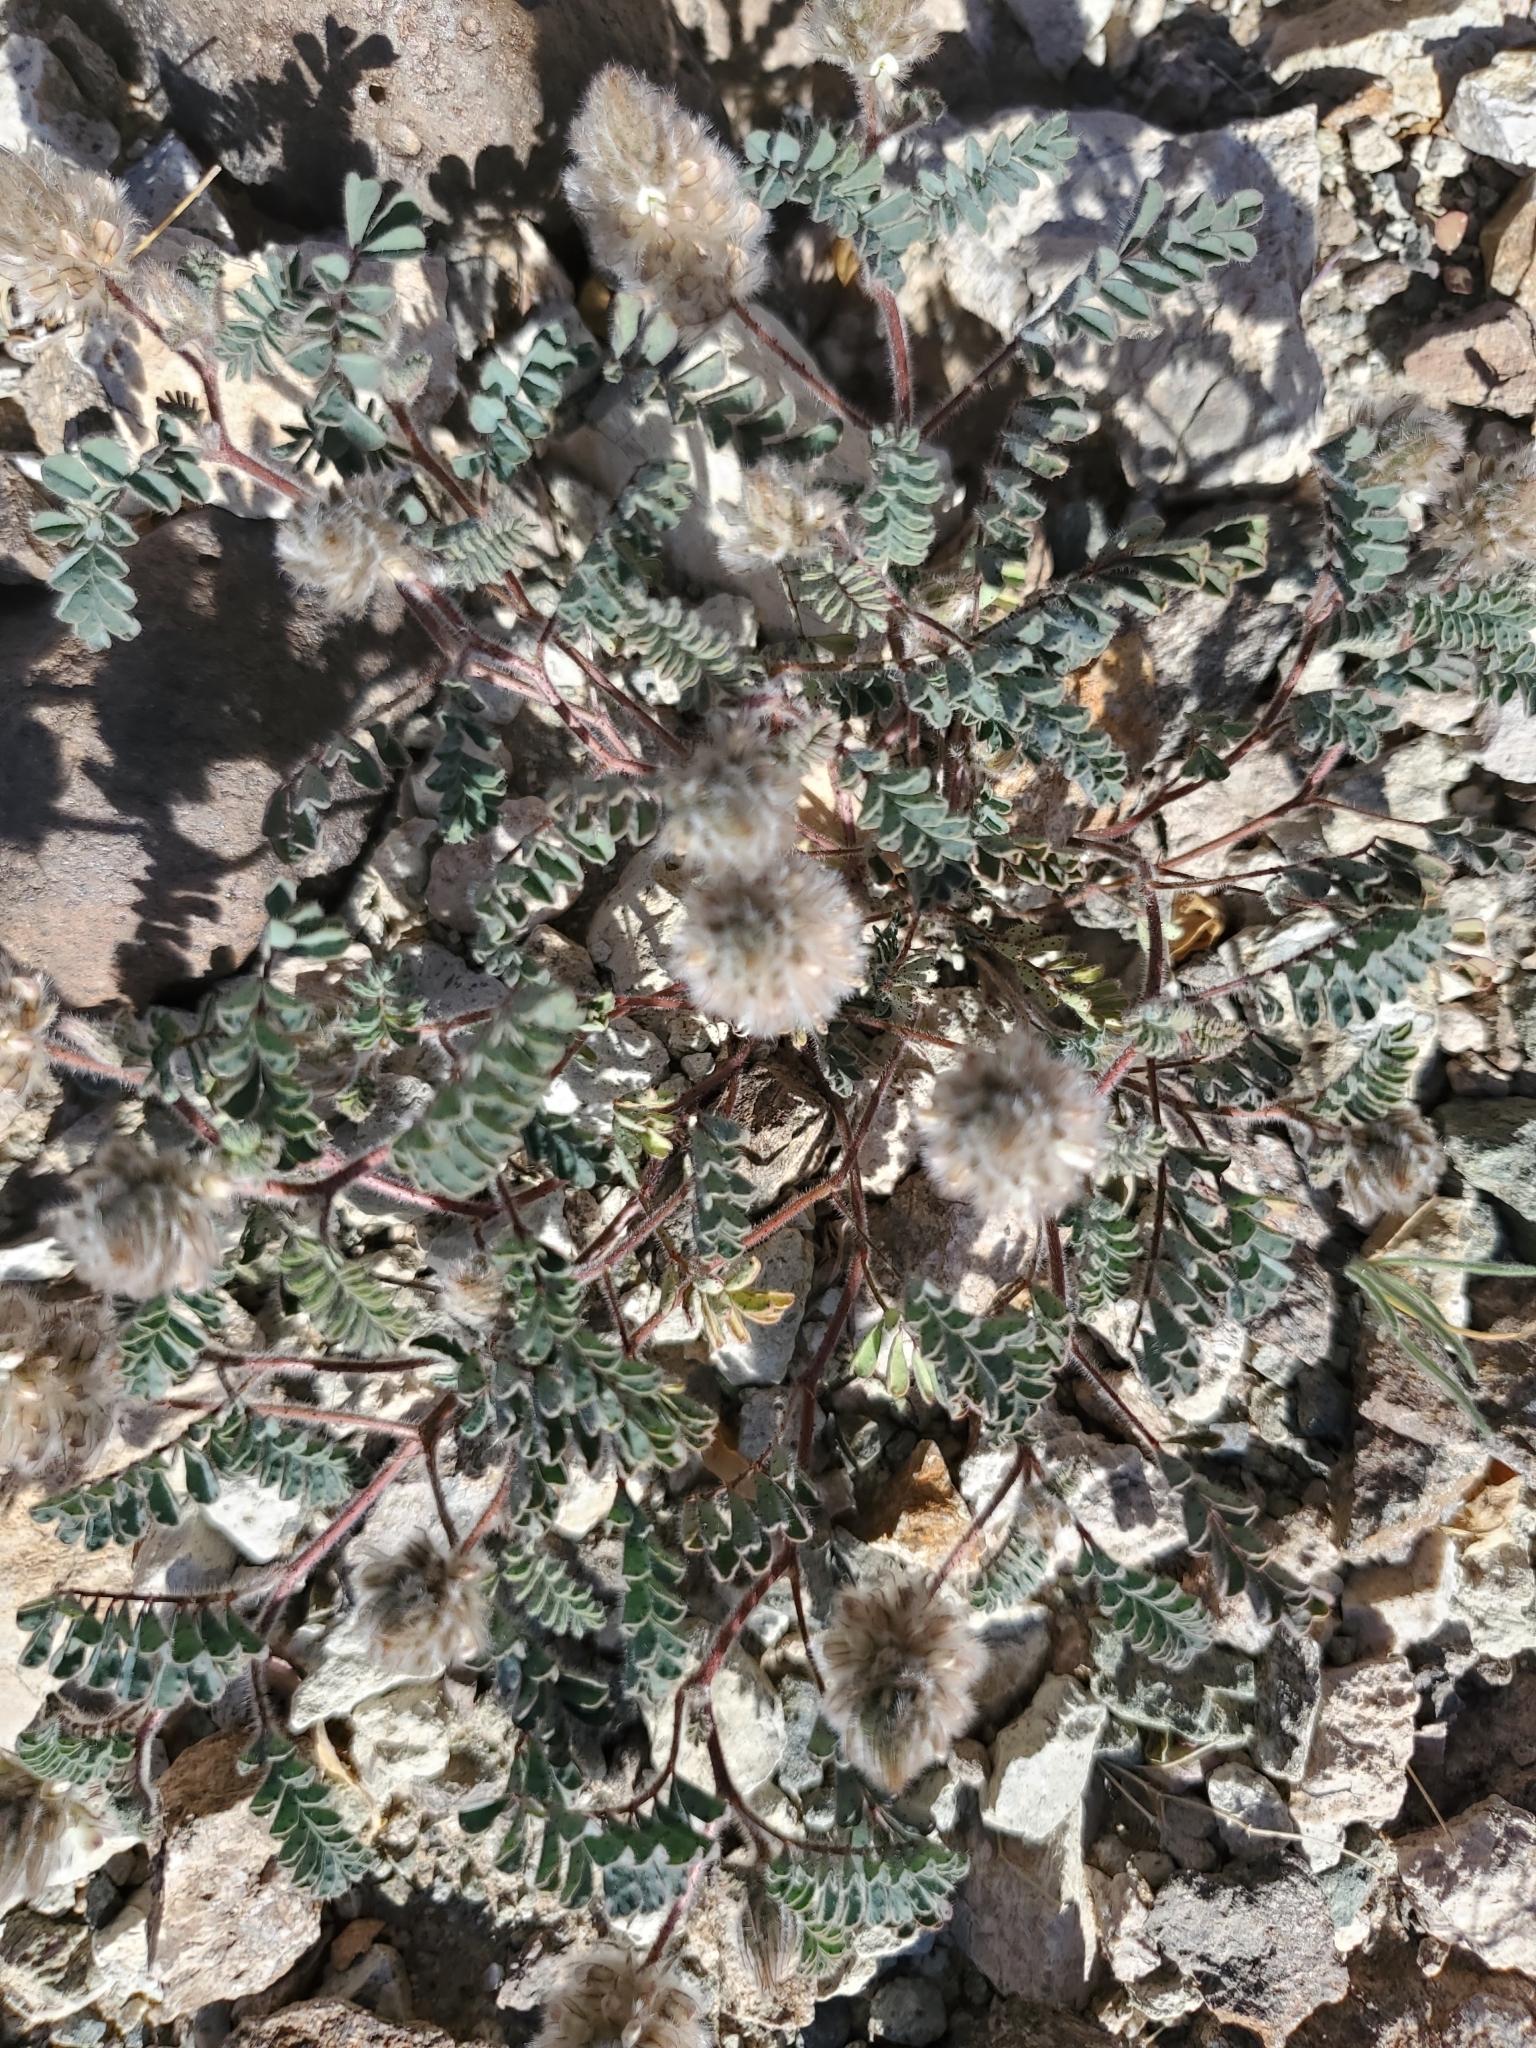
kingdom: Plantae
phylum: Tracheophyta
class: Magnoliopsida
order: Fabales
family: Fabaceae
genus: Dalea
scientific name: Dalea mollis
